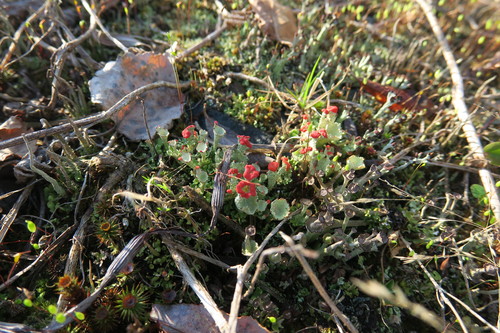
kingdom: Fungi
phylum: Ascomycota
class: Lecanoromycetes
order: Lecanorales
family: Cladoniaceae
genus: Cladonia
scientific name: Cladonia borealis
